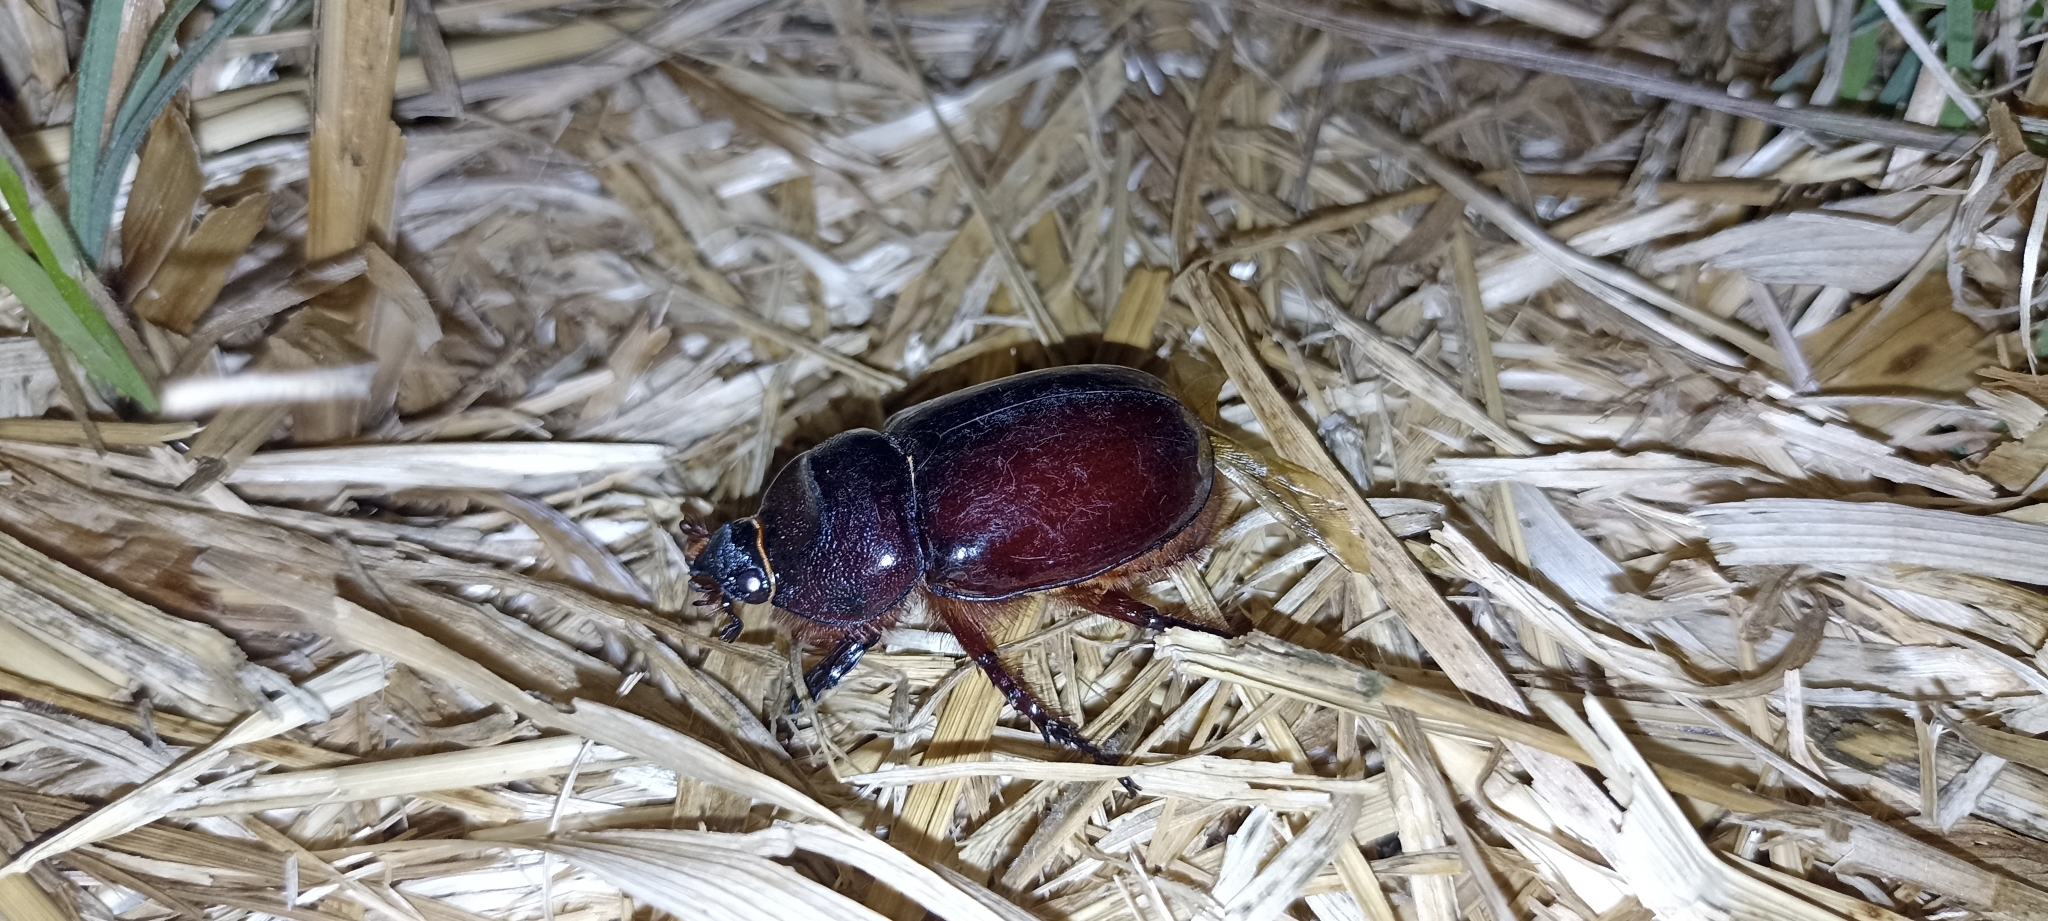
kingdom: Animalia
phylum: Arthropoda
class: Insecta
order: Coleoptera
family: Scarabaeidae
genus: Oryctes
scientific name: Oryctes nasicornis
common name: European rhinoceros beetle
